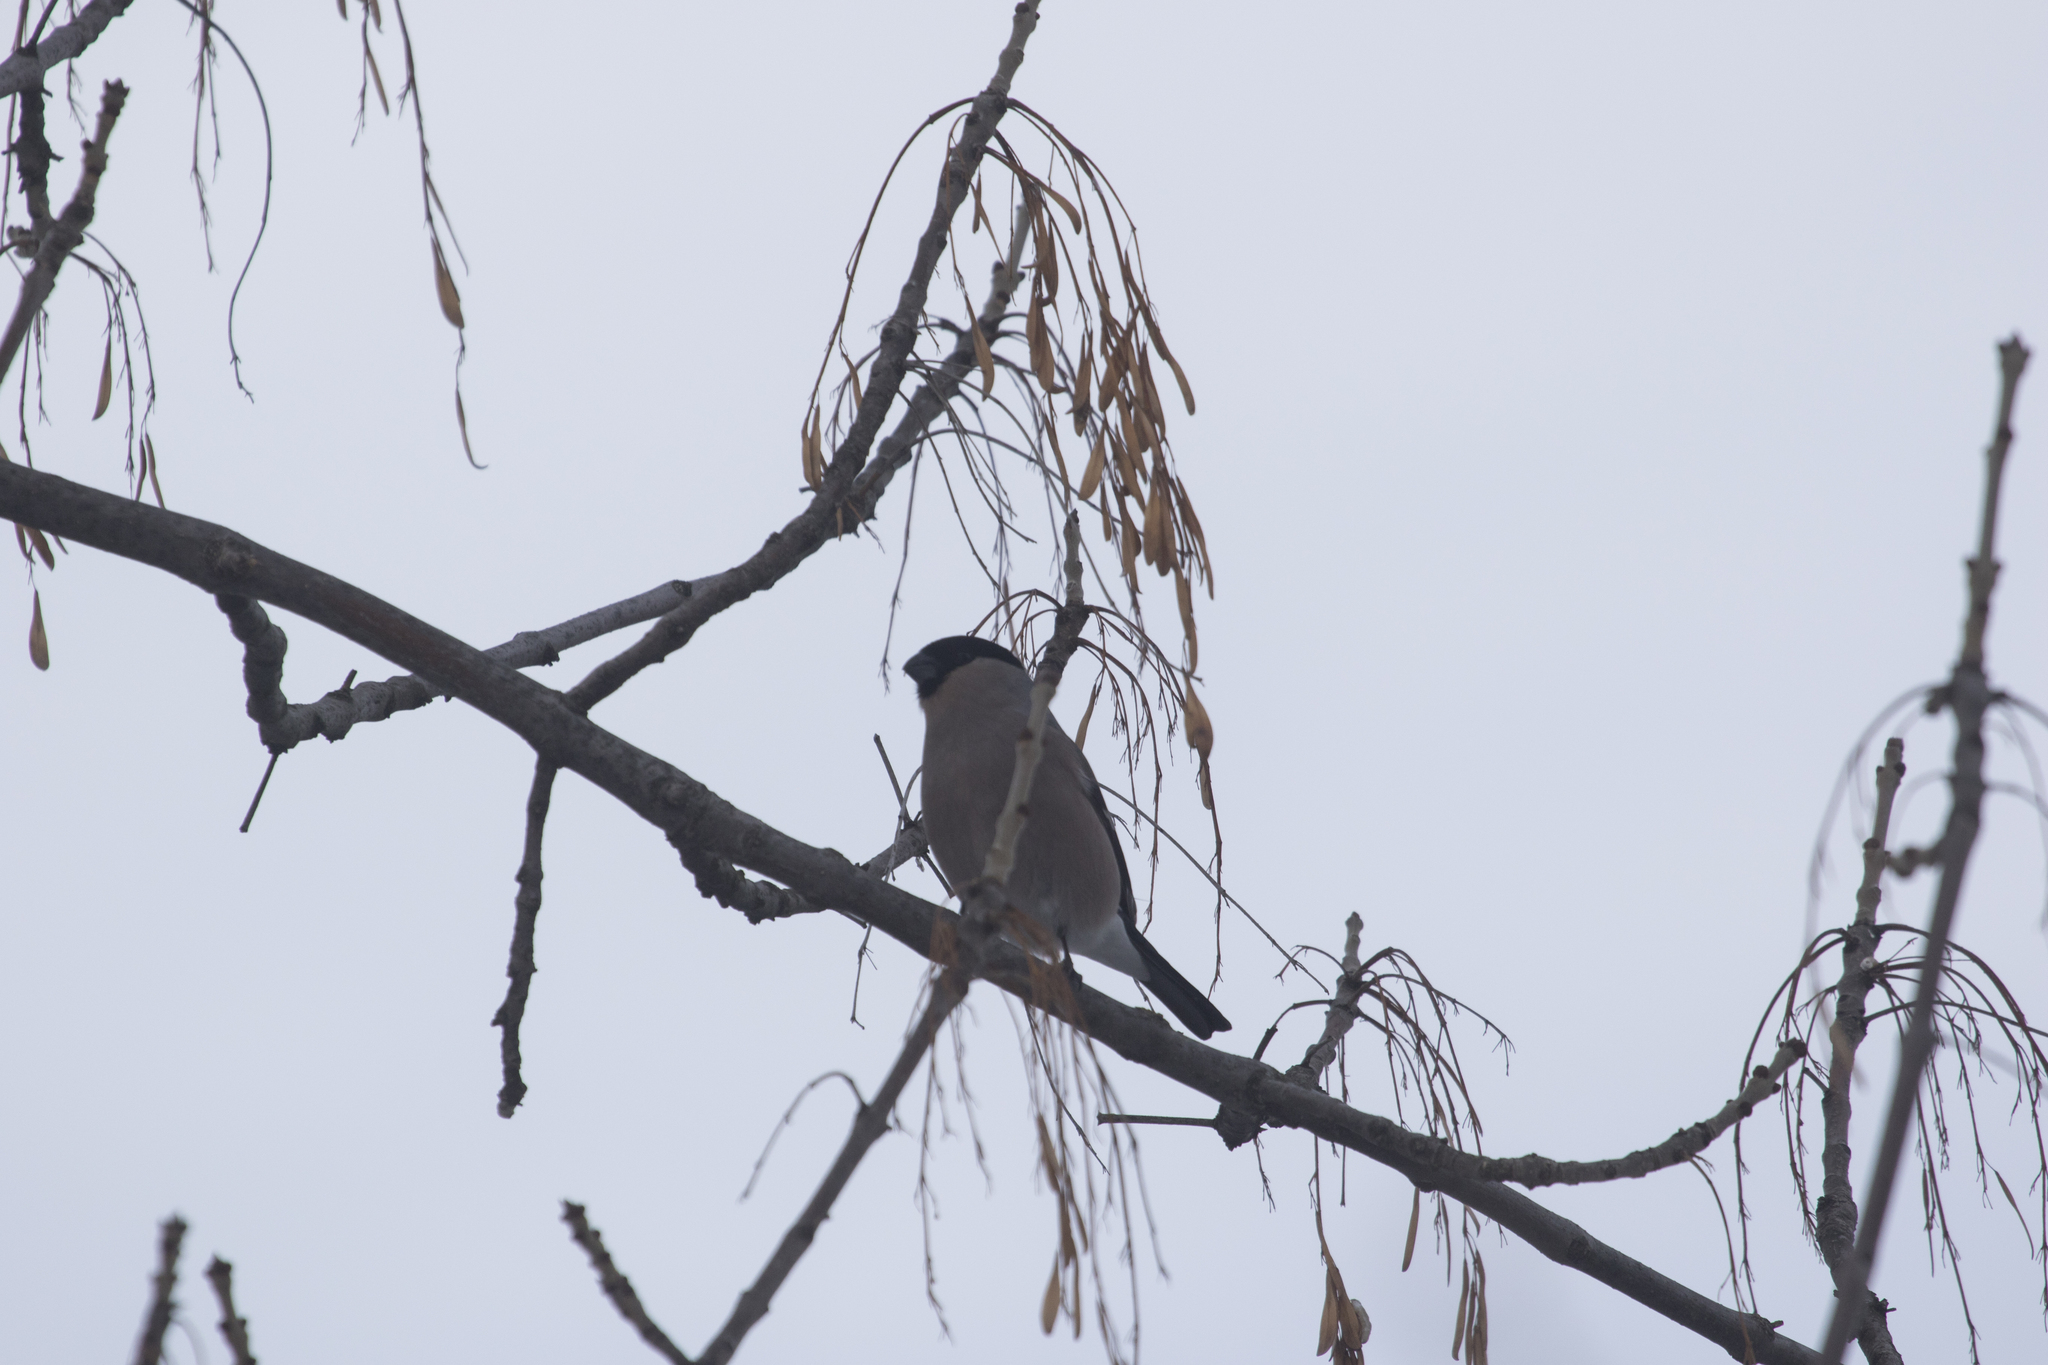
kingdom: Animalia
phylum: Chordata
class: Aves
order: Passeriformes
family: Fringillidae
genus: Pyrrhula
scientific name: Pyrrhula pyrrhula
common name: Eurasian bullfinch
